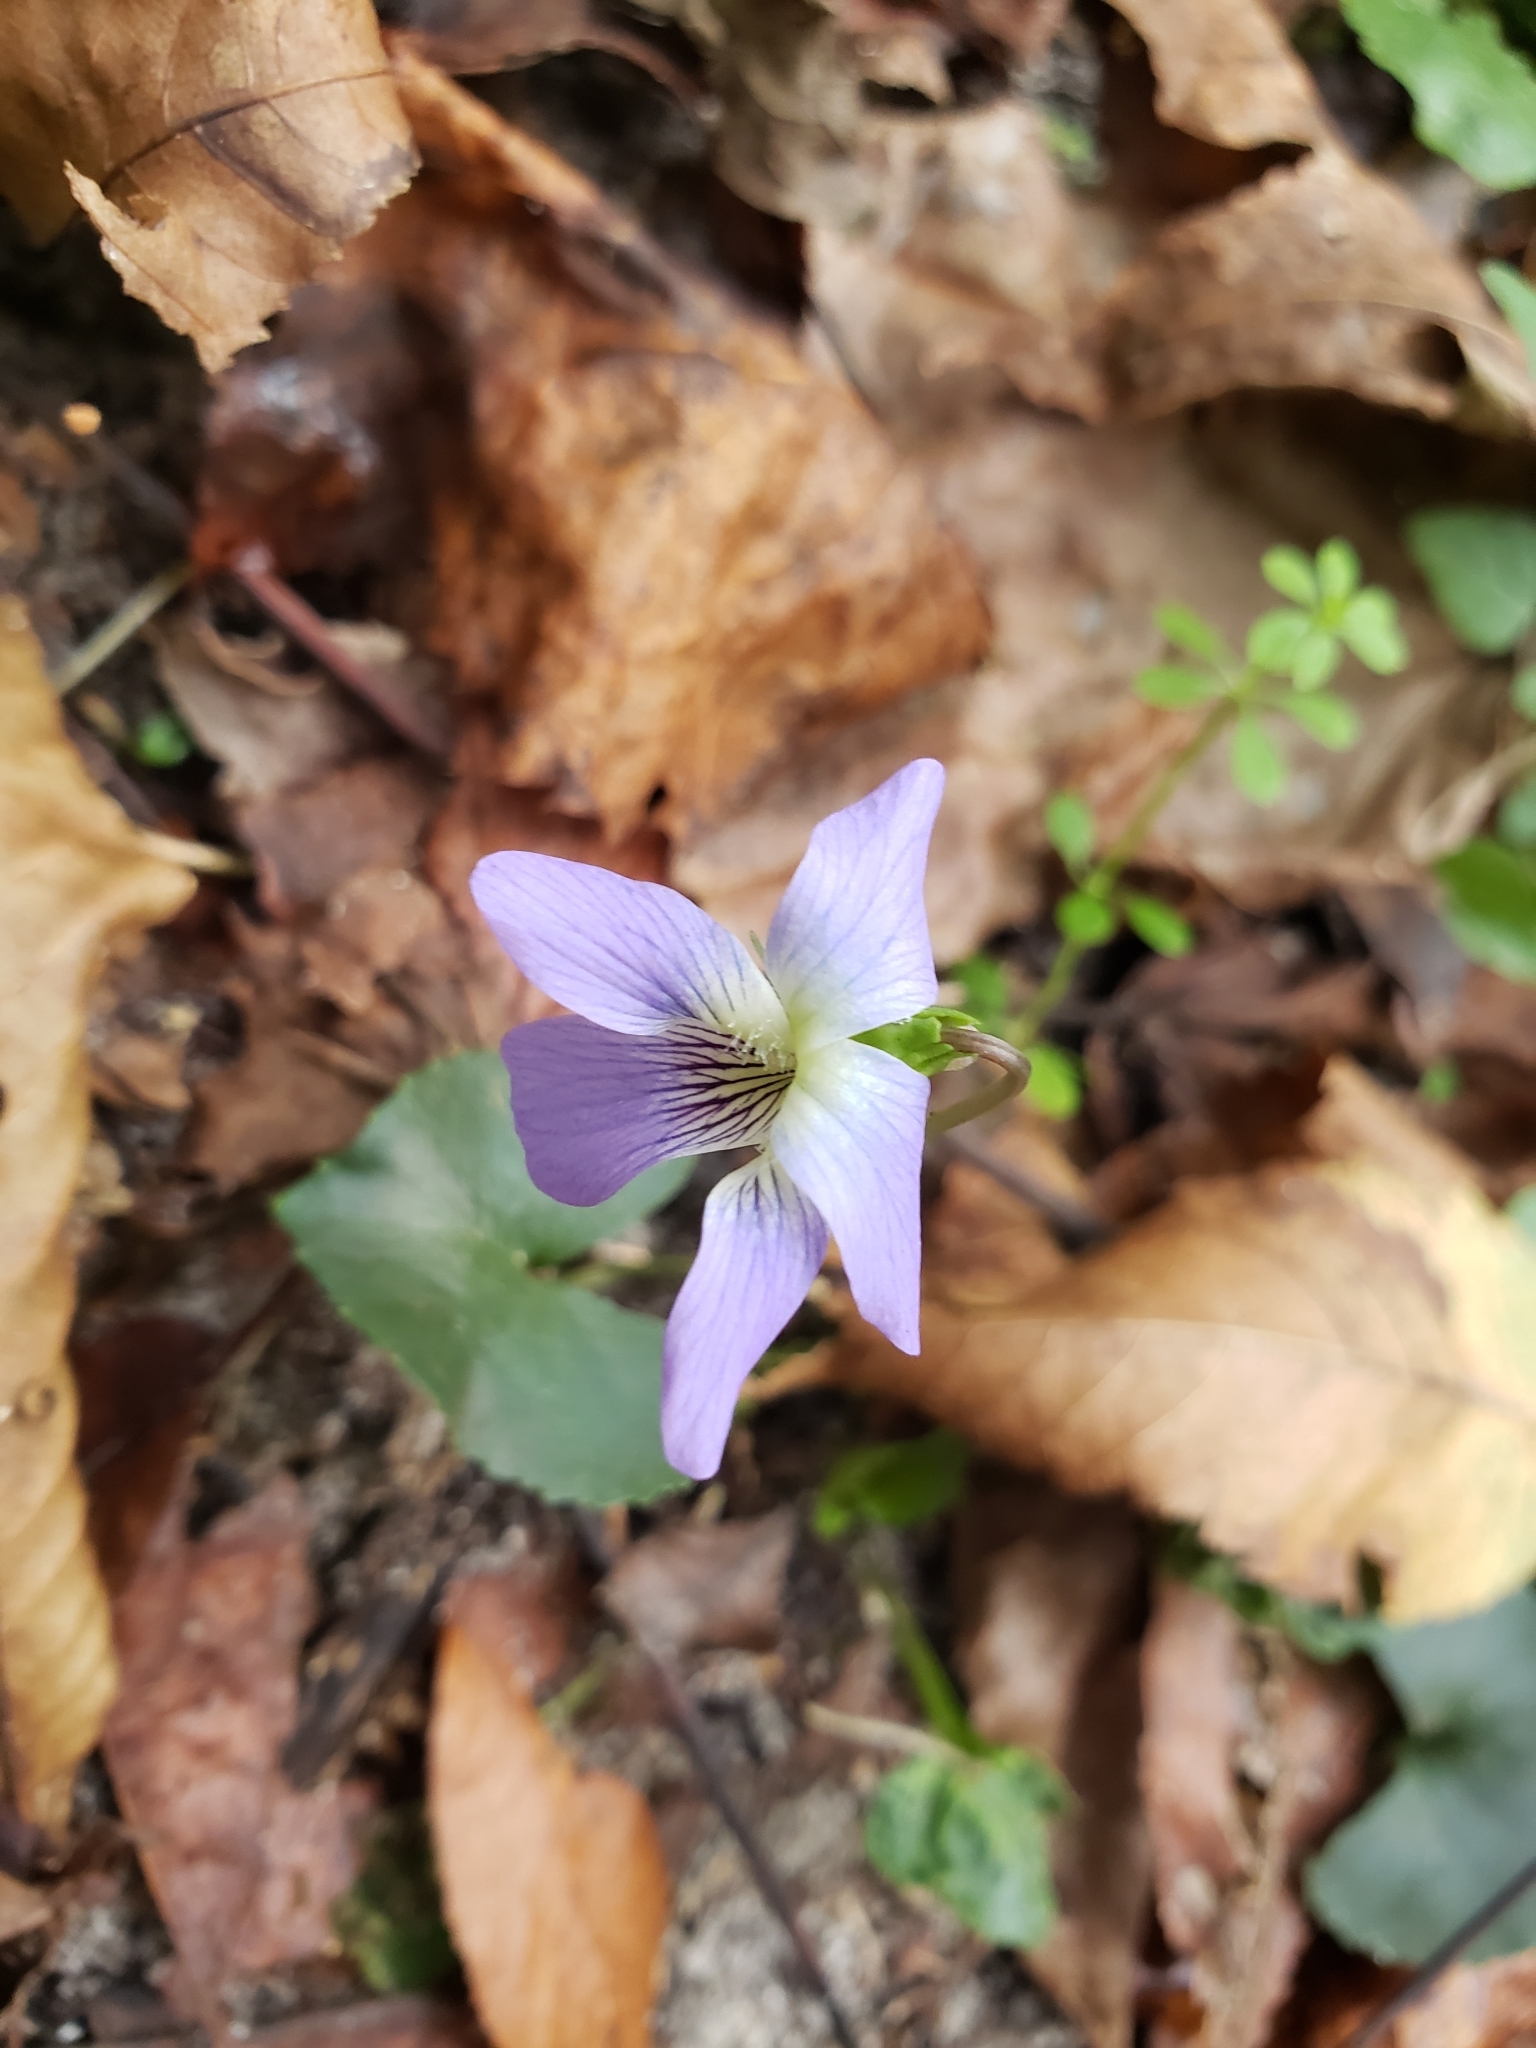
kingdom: Plantae
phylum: Tracheophyta
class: Magnoliopsida
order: Malpighiales
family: Violaceae
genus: Viola
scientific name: Viola sororia
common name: Dooryard violet
